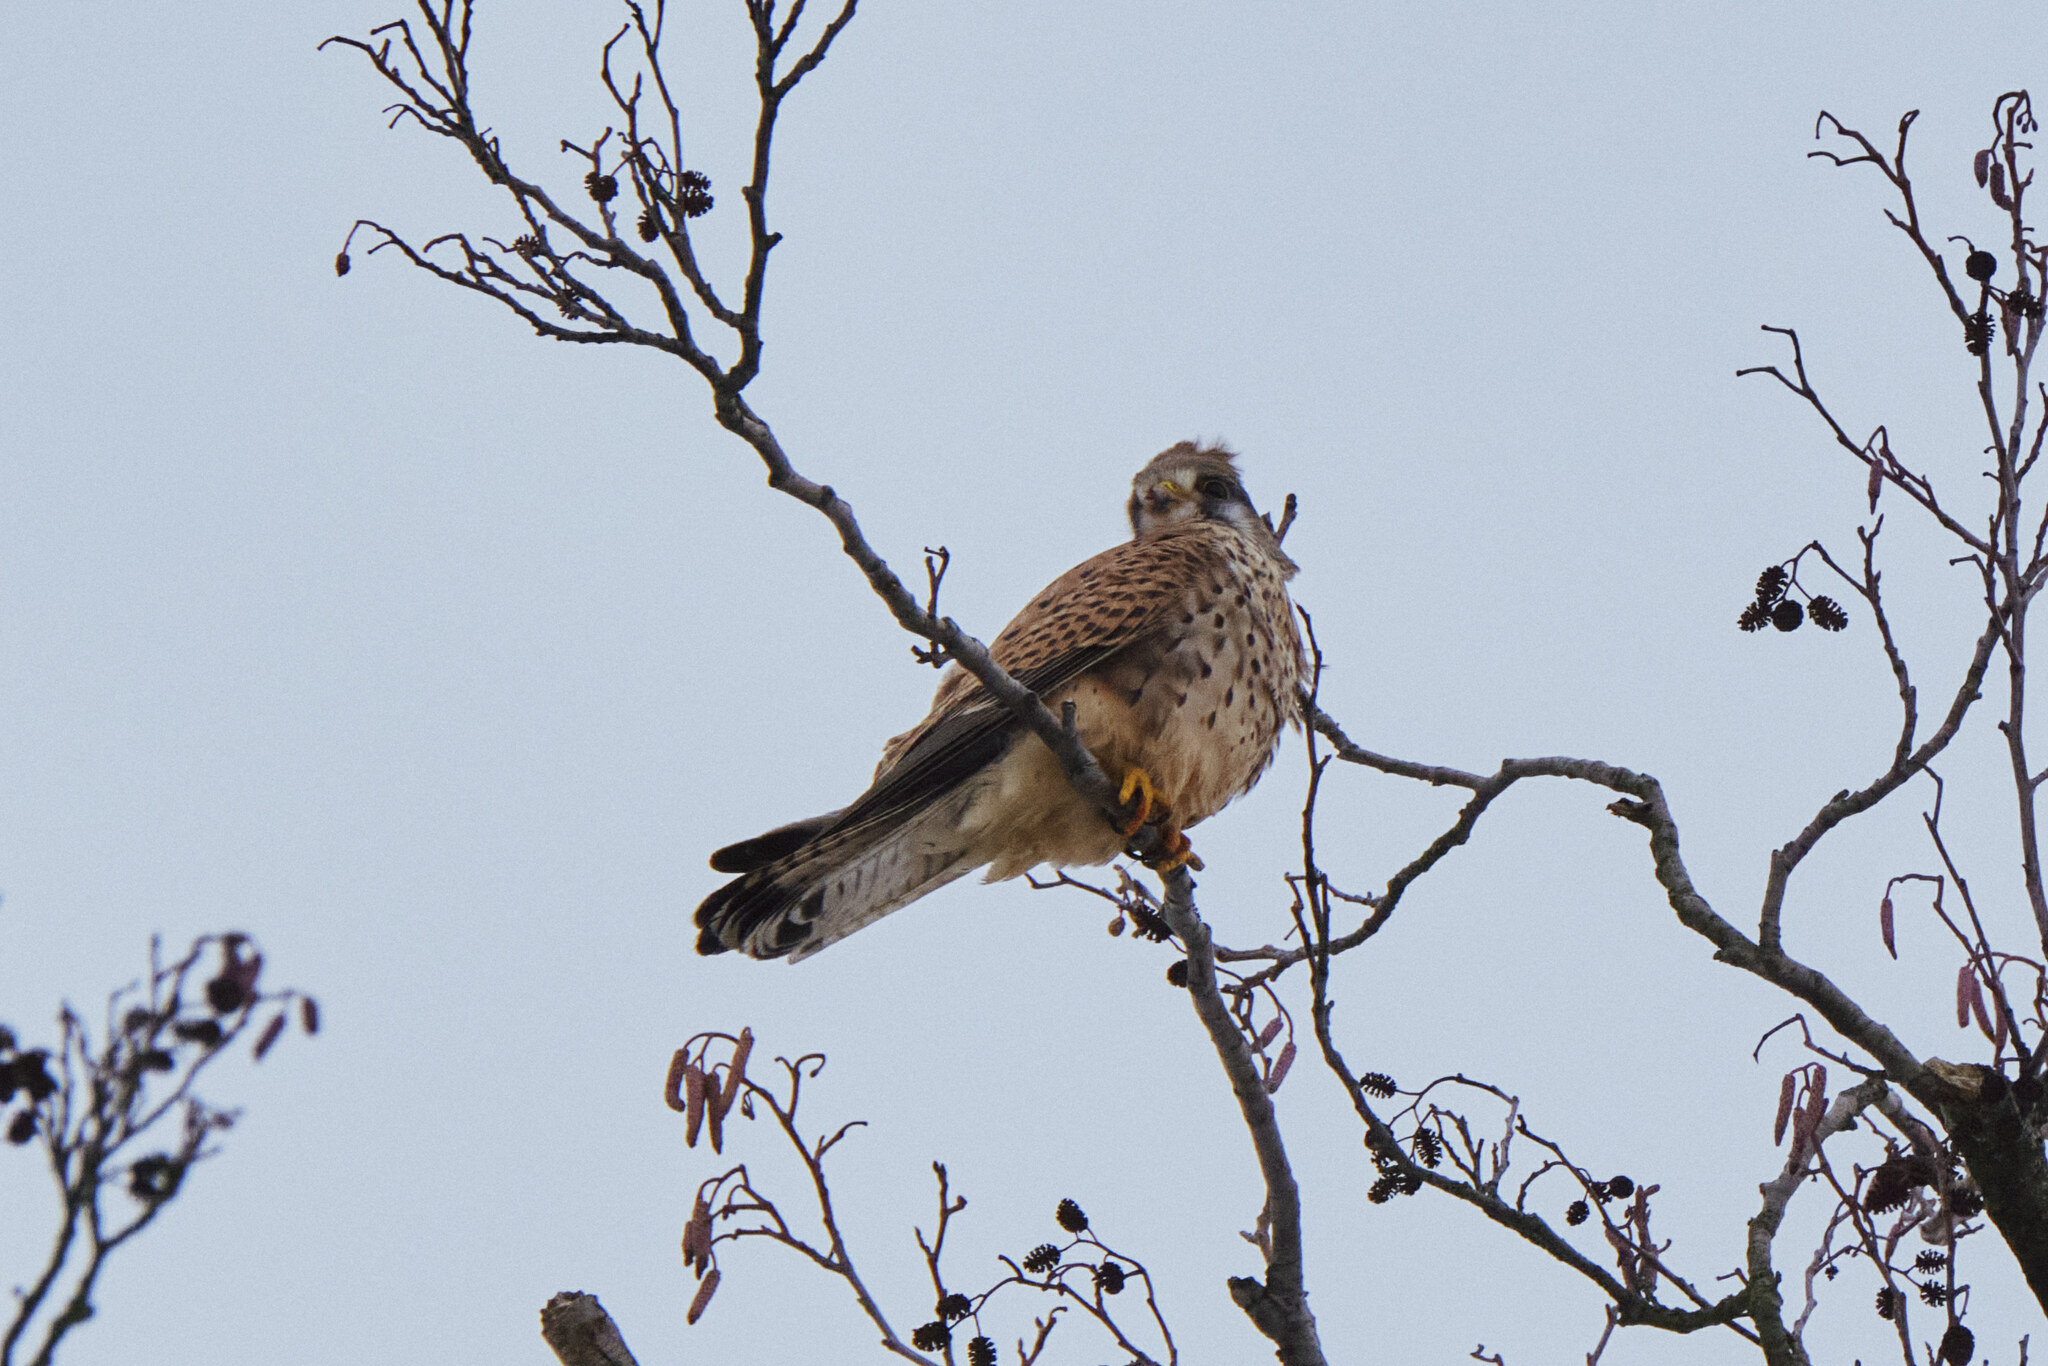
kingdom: Animalia
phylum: Chordata
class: Aves
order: Falconiformes
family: Falconidae
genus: Falco
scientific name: Falco tinnunculus
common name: Common kestrel
